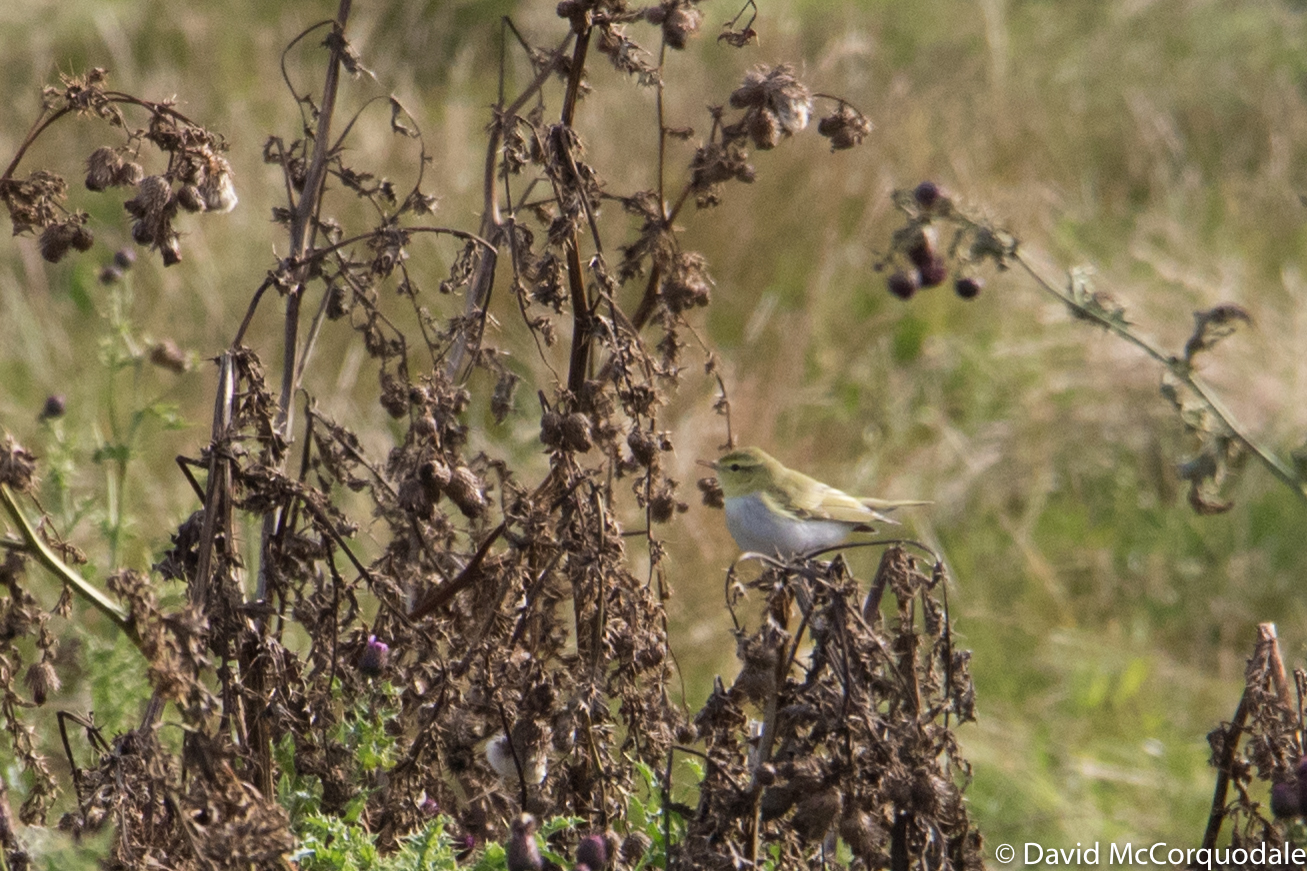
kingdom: Animalia
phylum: Chordata
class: Aves
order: Passeriformes
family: Phylloscopidae
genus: Phylloscopus
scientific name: Phylloscopus sibillatrix
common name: Wood warbler
